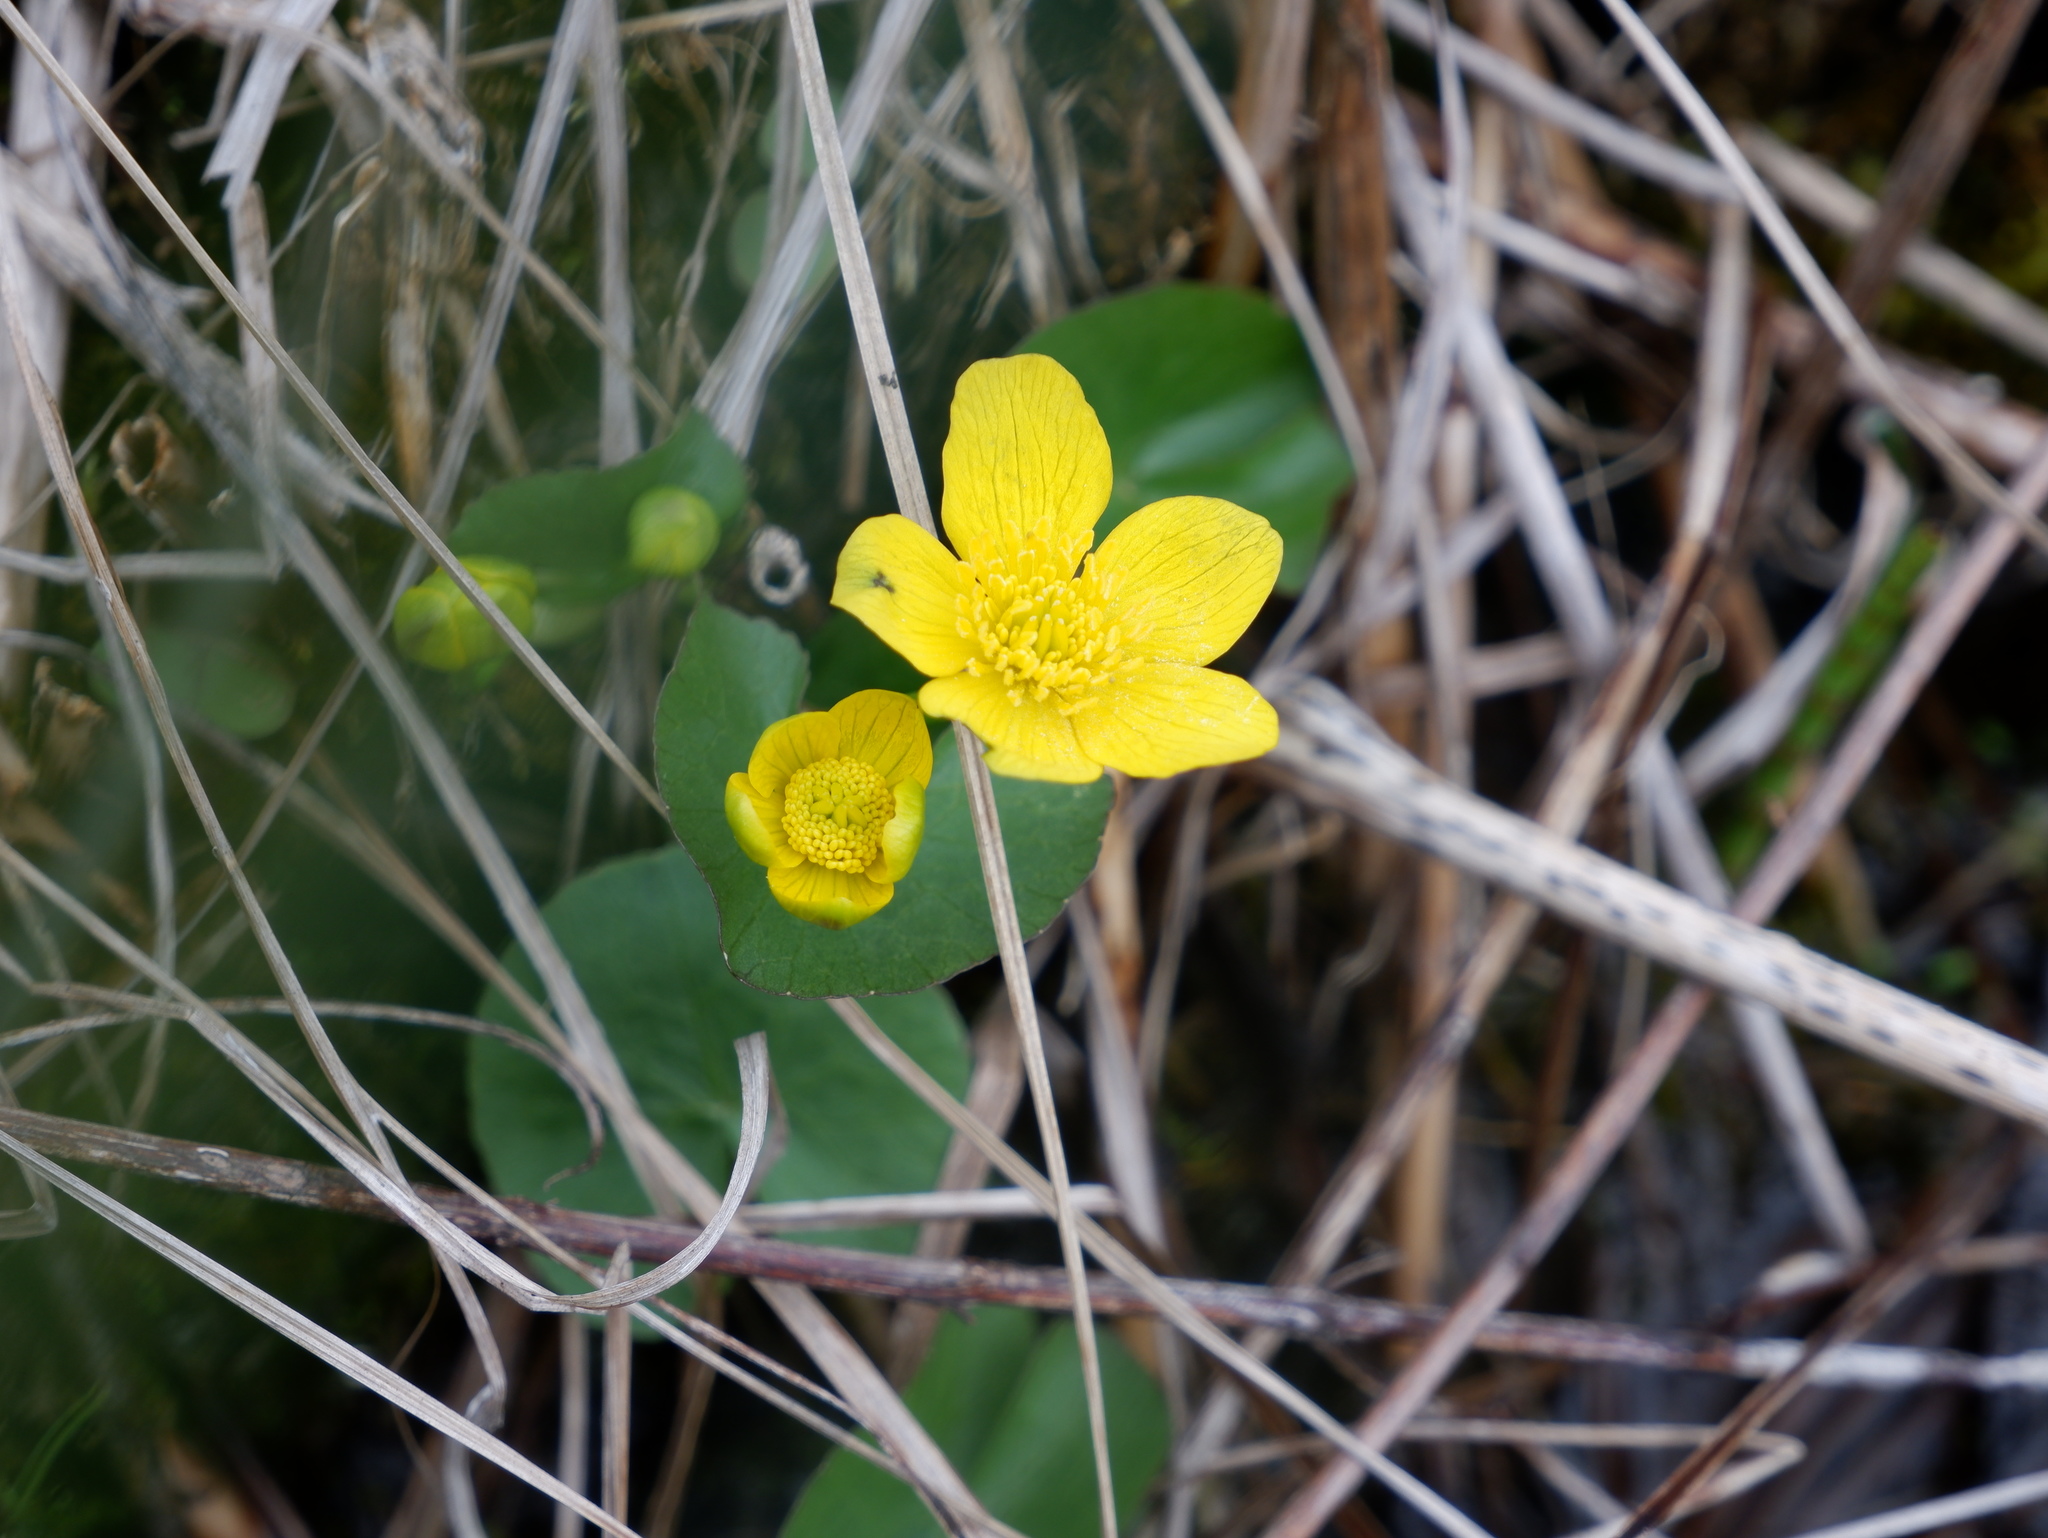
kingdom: Plantae
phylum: Tracheophyta
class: Magnoliopsida
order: Ranunculales
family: Ranunculaceae
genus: Caltha
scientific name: Caltha palustris
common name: Marsh marigold
